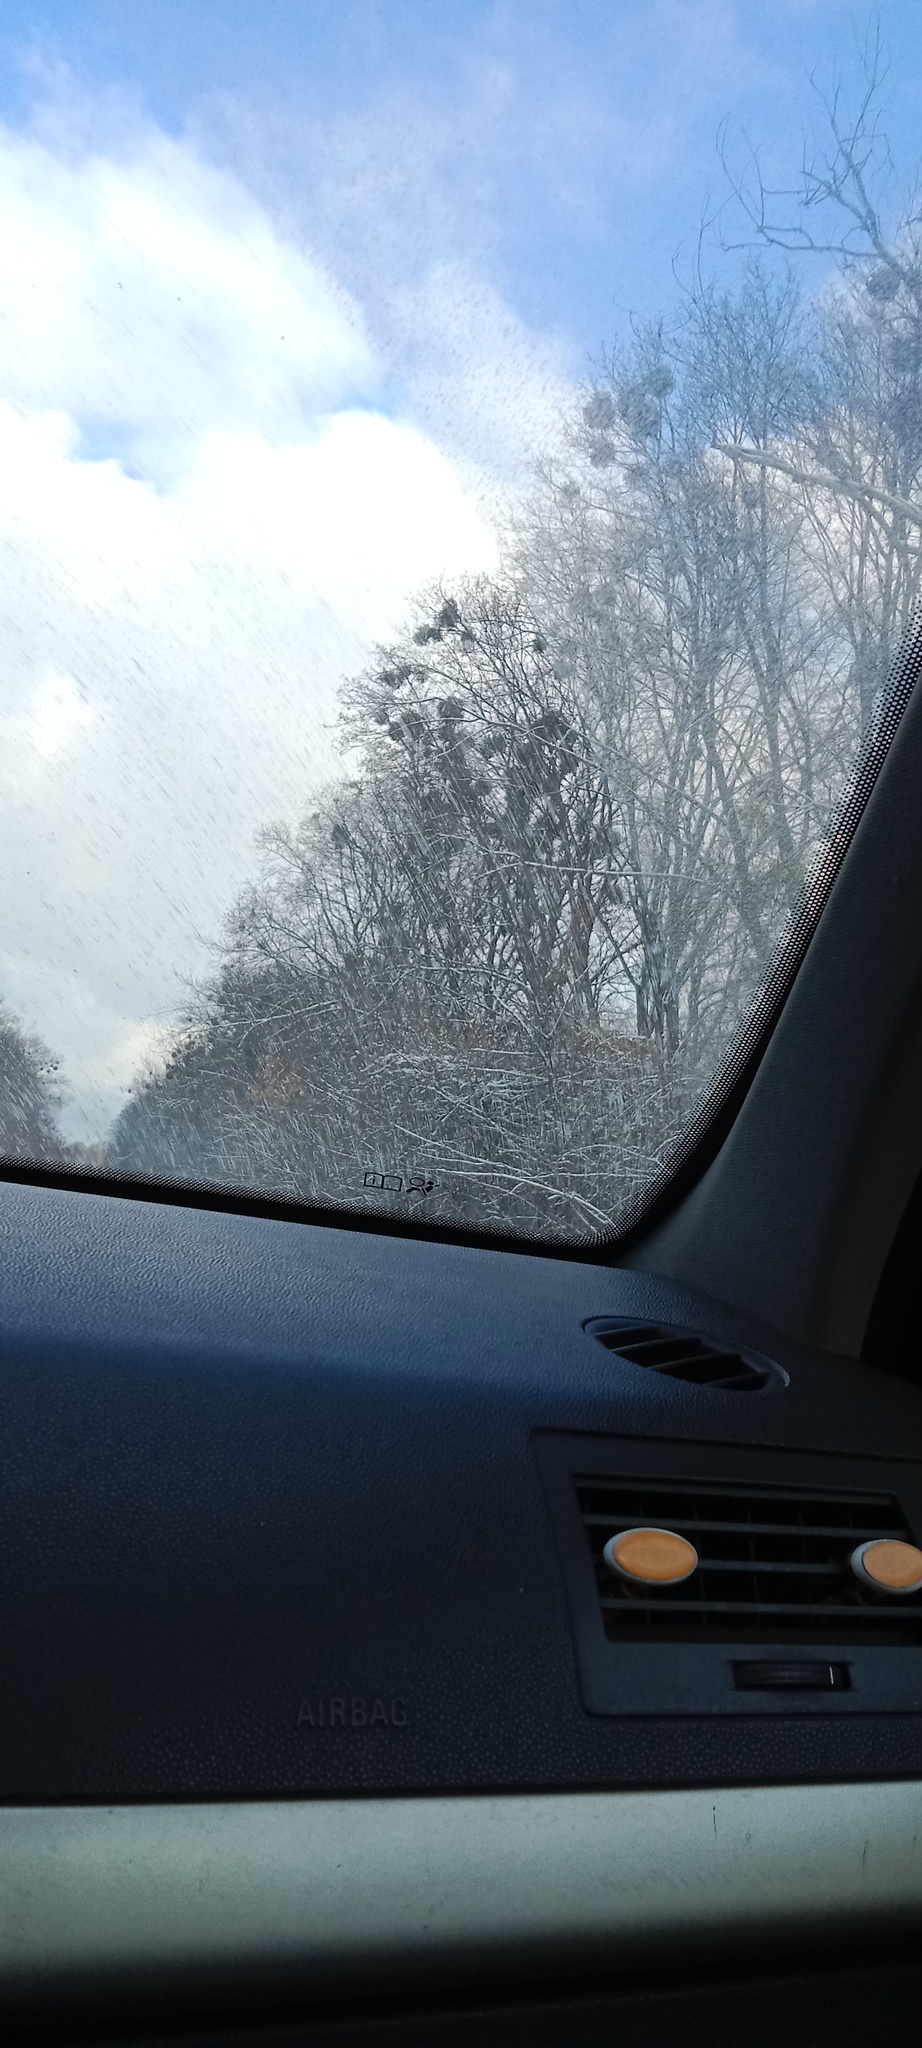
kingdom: Plantae
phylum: Tracheophyta
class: Magnoliopsida
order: Santalales
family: Viscaceae
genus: Viscum
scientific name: Viscum album
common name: Mistletoe
